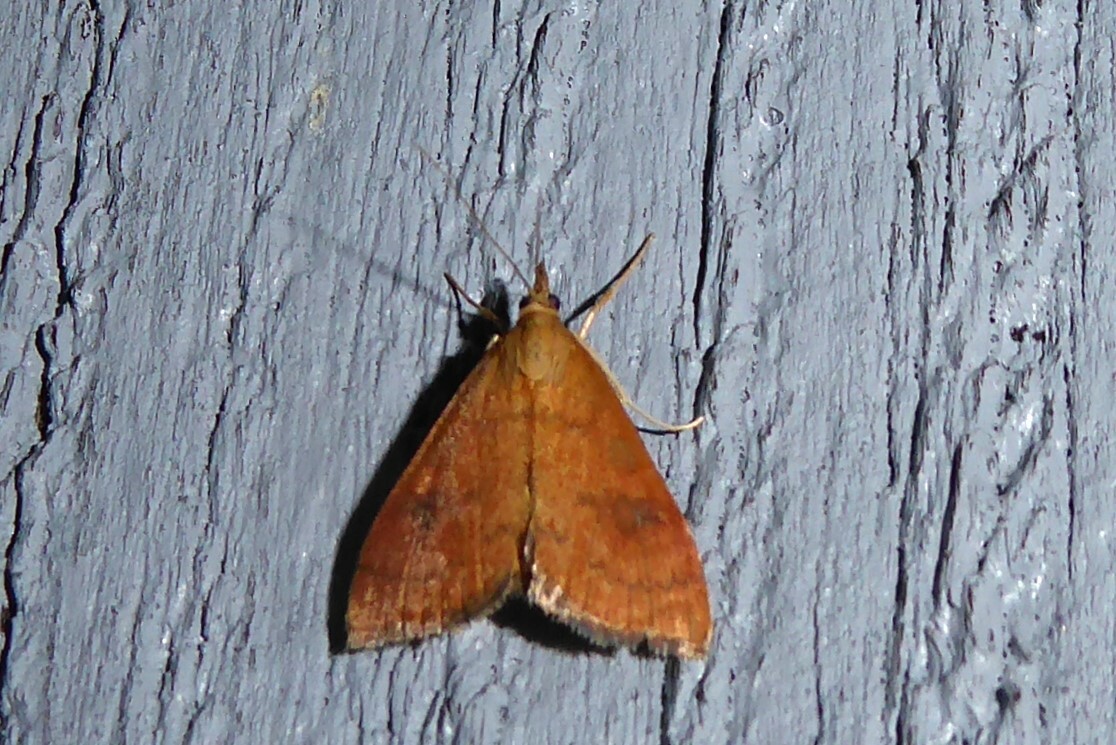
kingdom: Animalia
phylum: Arthropoda
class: Insecta
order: Lepidoptera
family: Crambidae
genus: Udea
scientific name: Udea Mnesictena flavidalis
